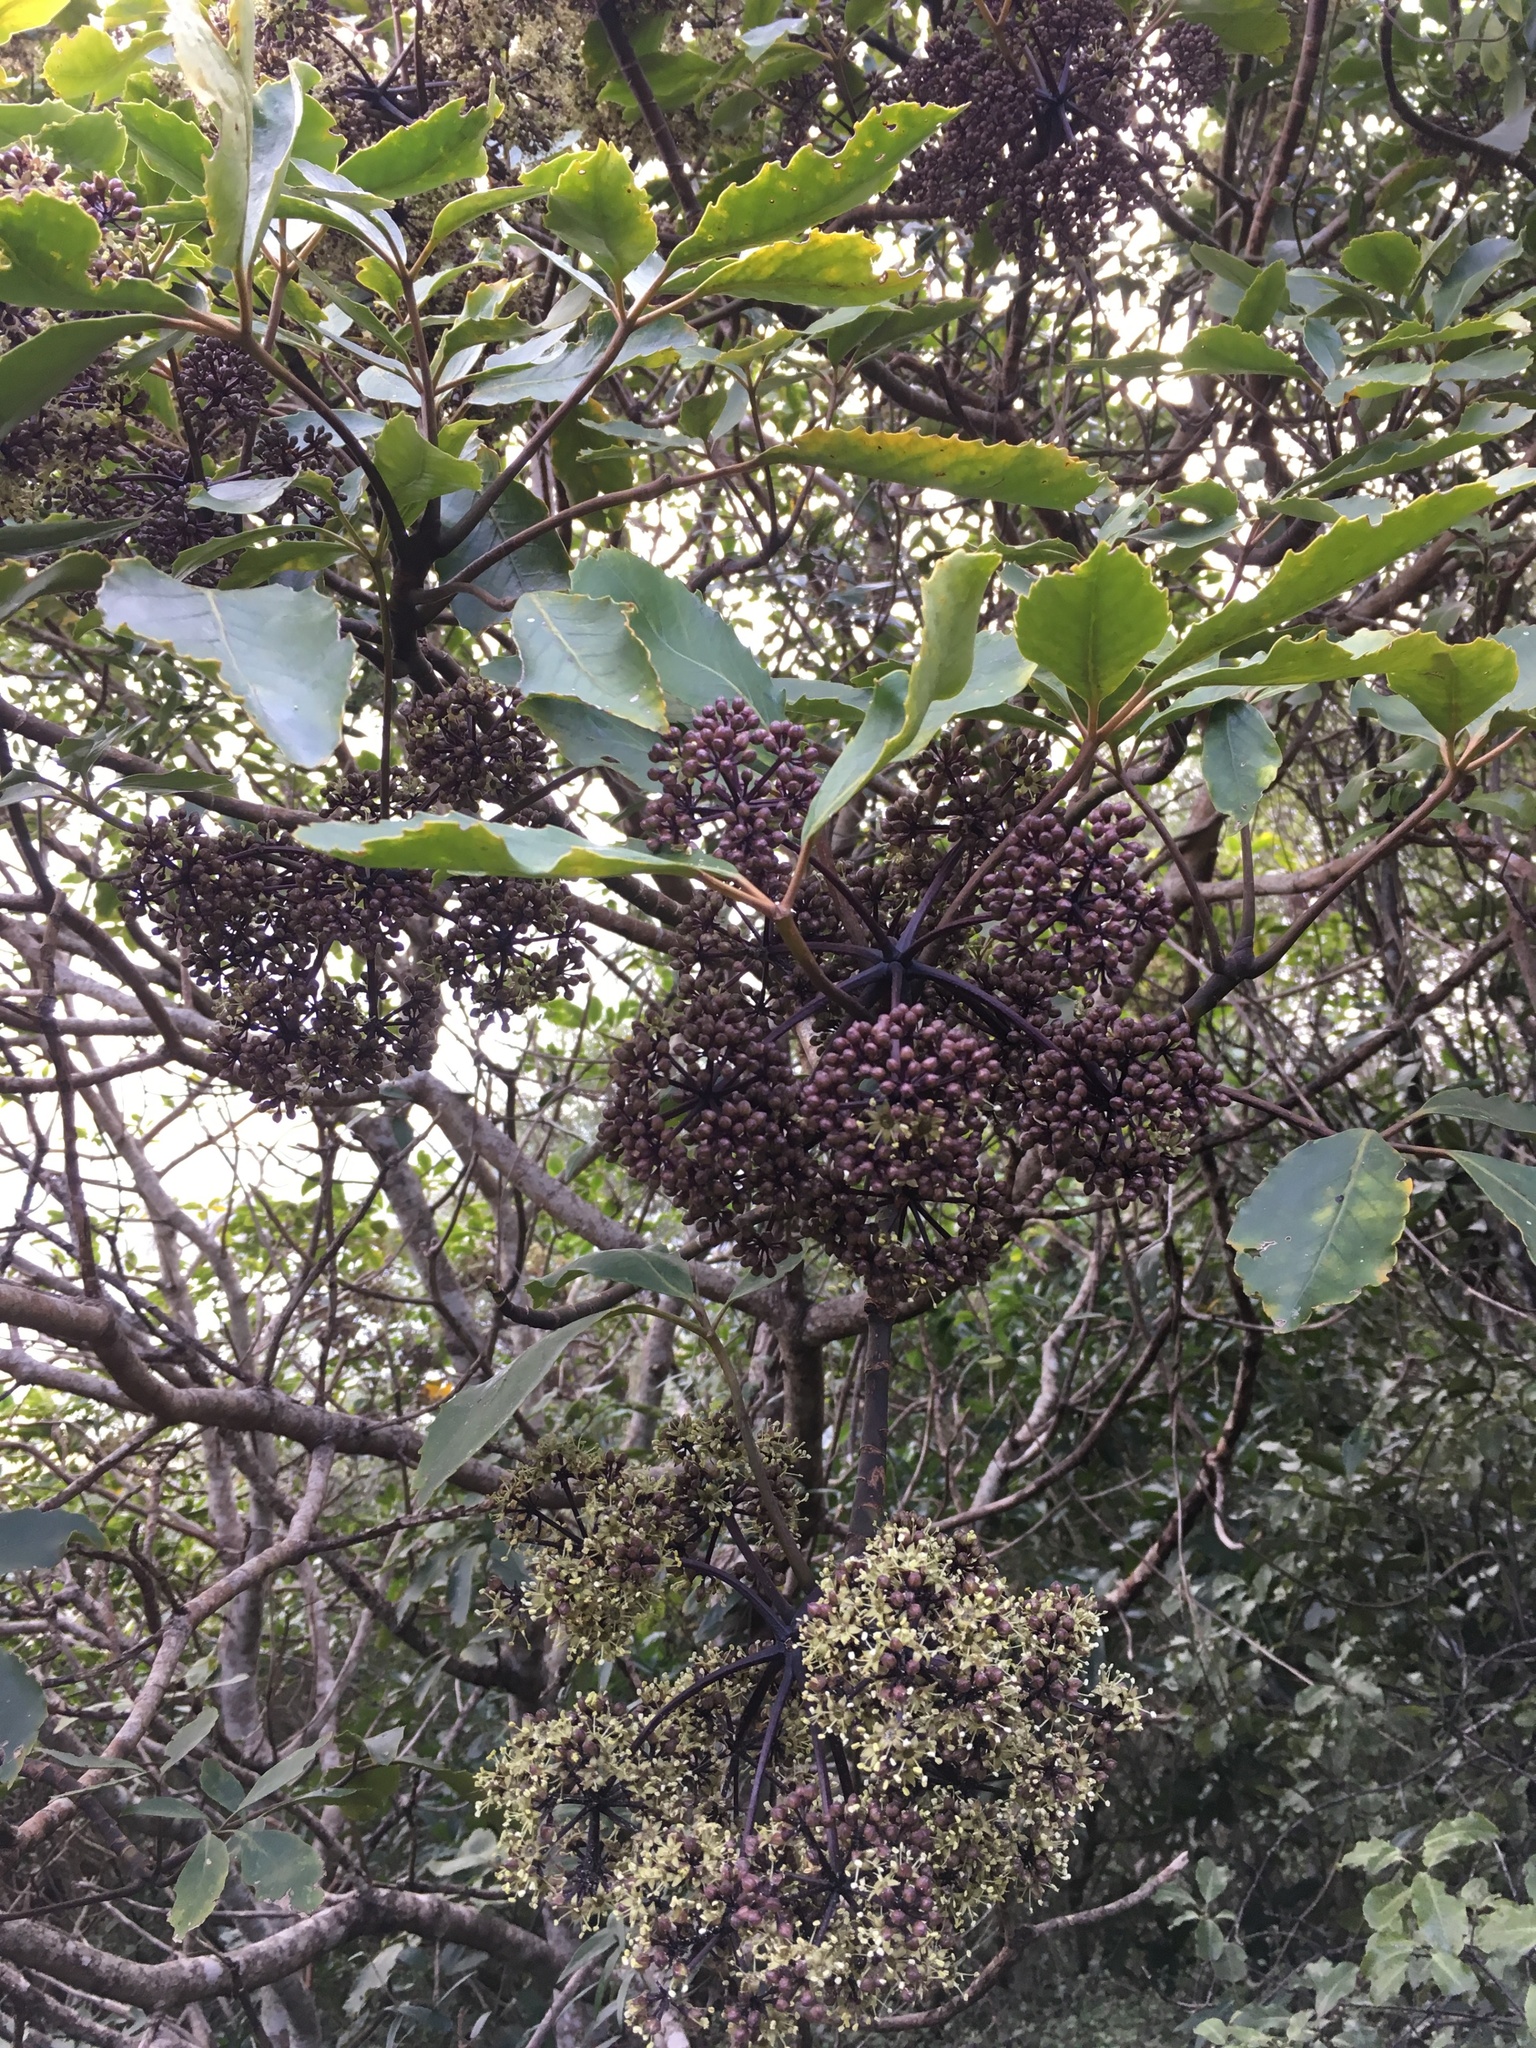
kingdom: Plantae
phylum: Tracheophyta
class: Magnoliopsida
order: Apiales
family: Araliaceae
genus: Neopanax
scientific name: Neopanax arboreus
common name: Five-fingers
